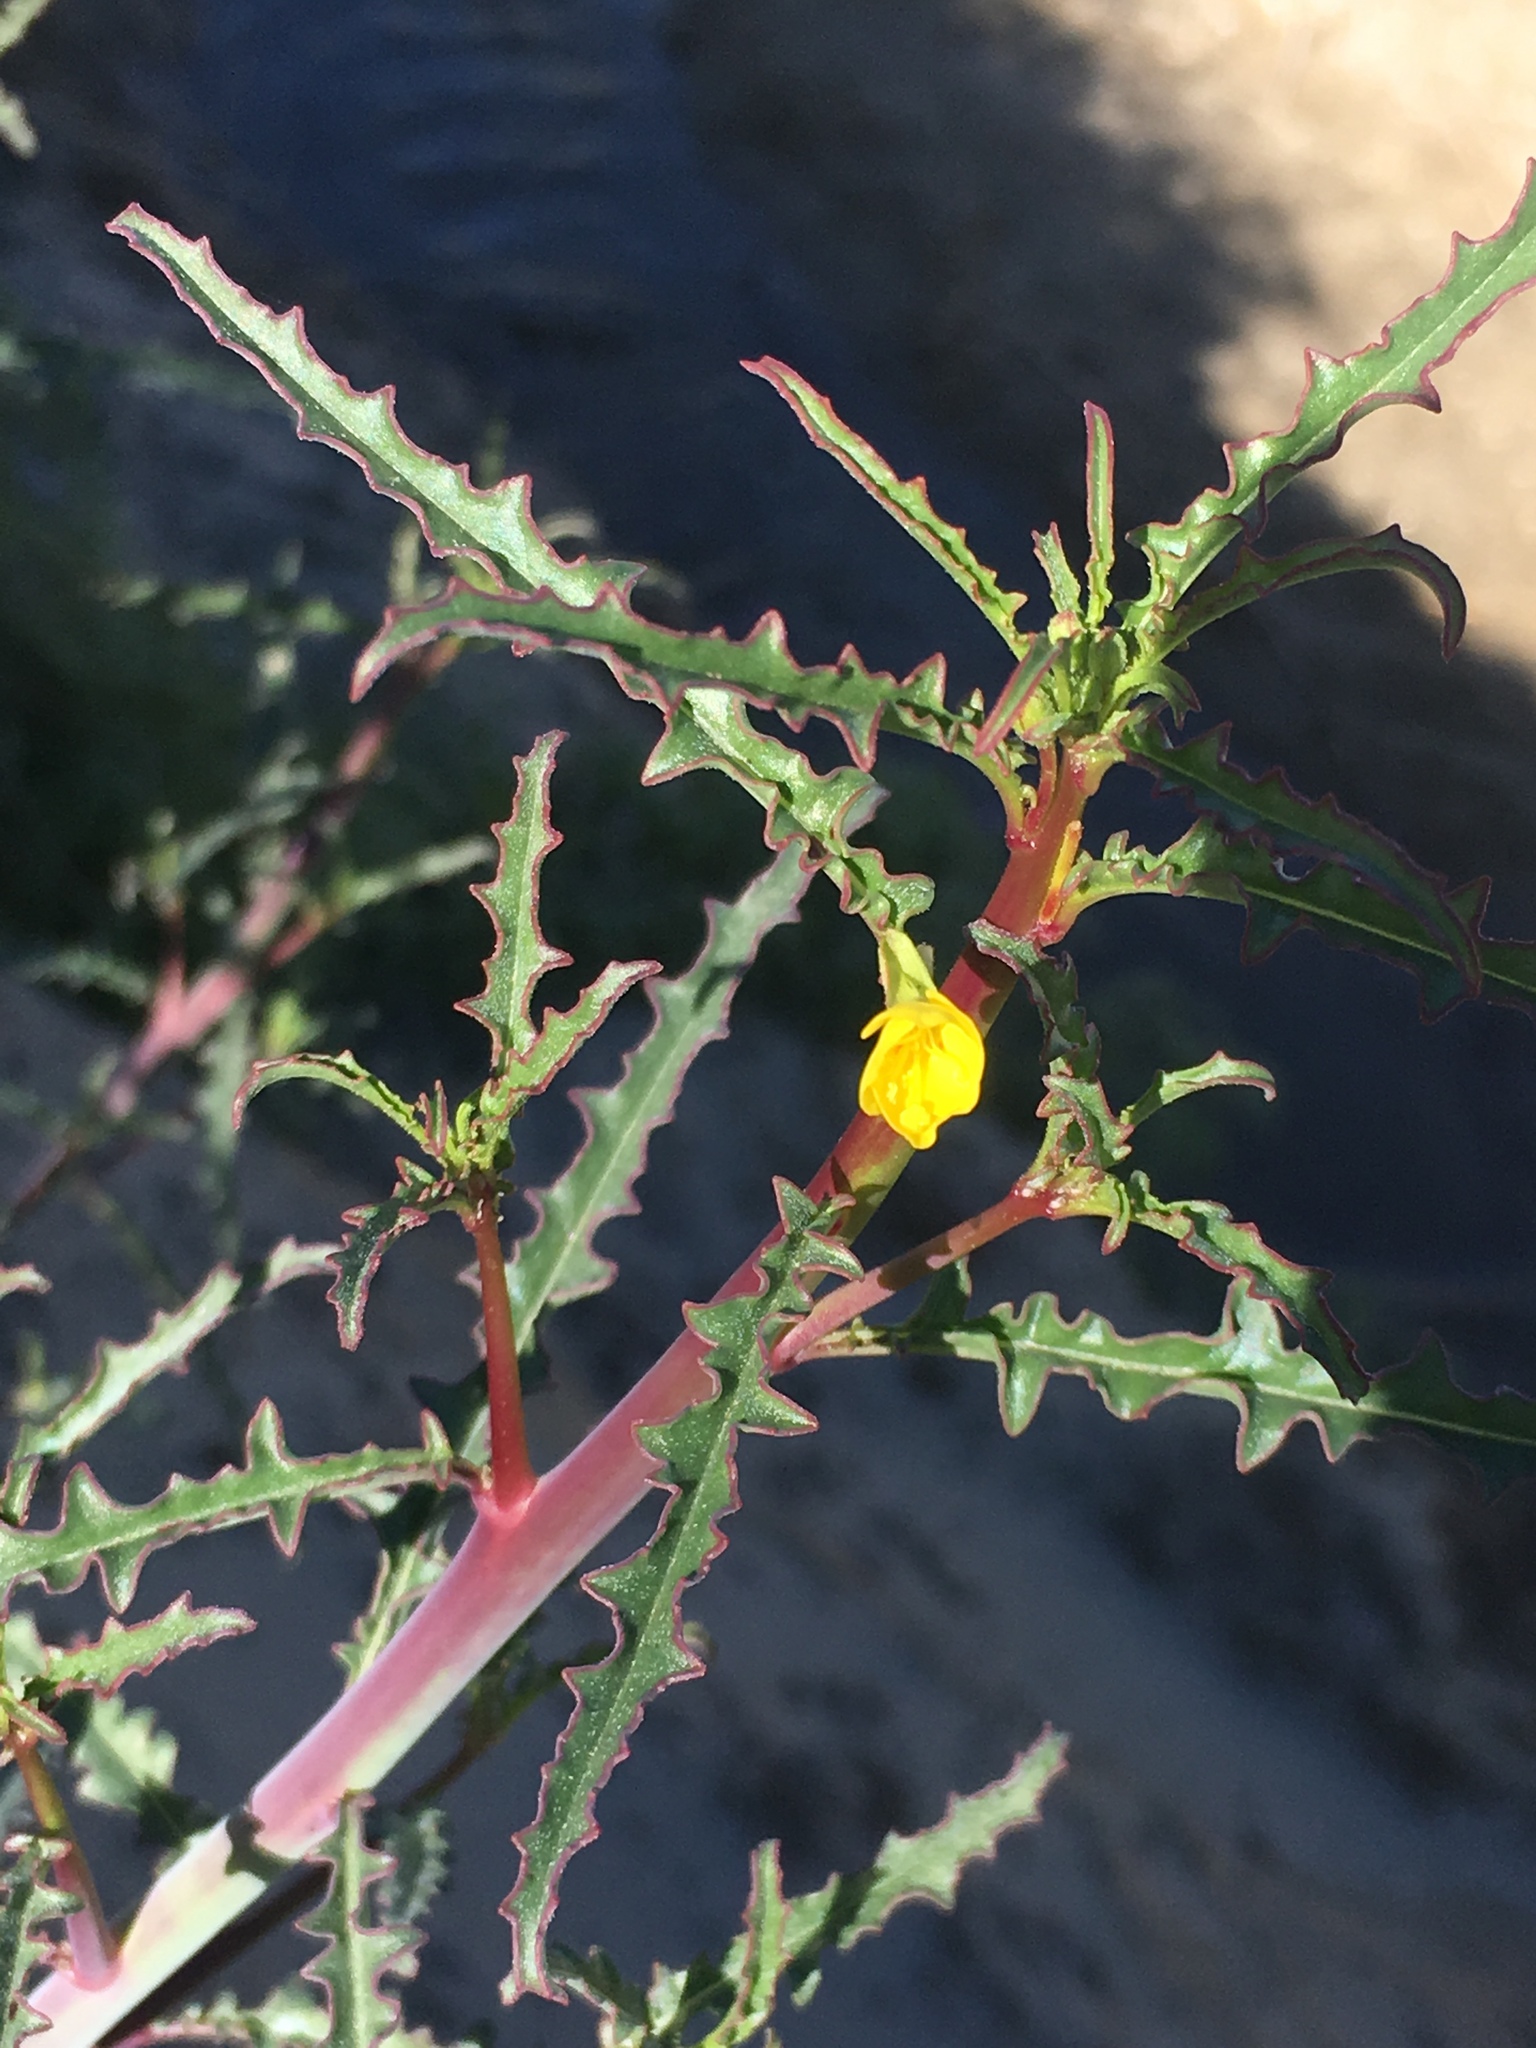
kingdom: Plantae
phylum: Tracheophyta
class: Magnoliopsida
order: Myrtales
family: Onagraceae
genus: Eulobus
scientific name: Eulobus californicus
